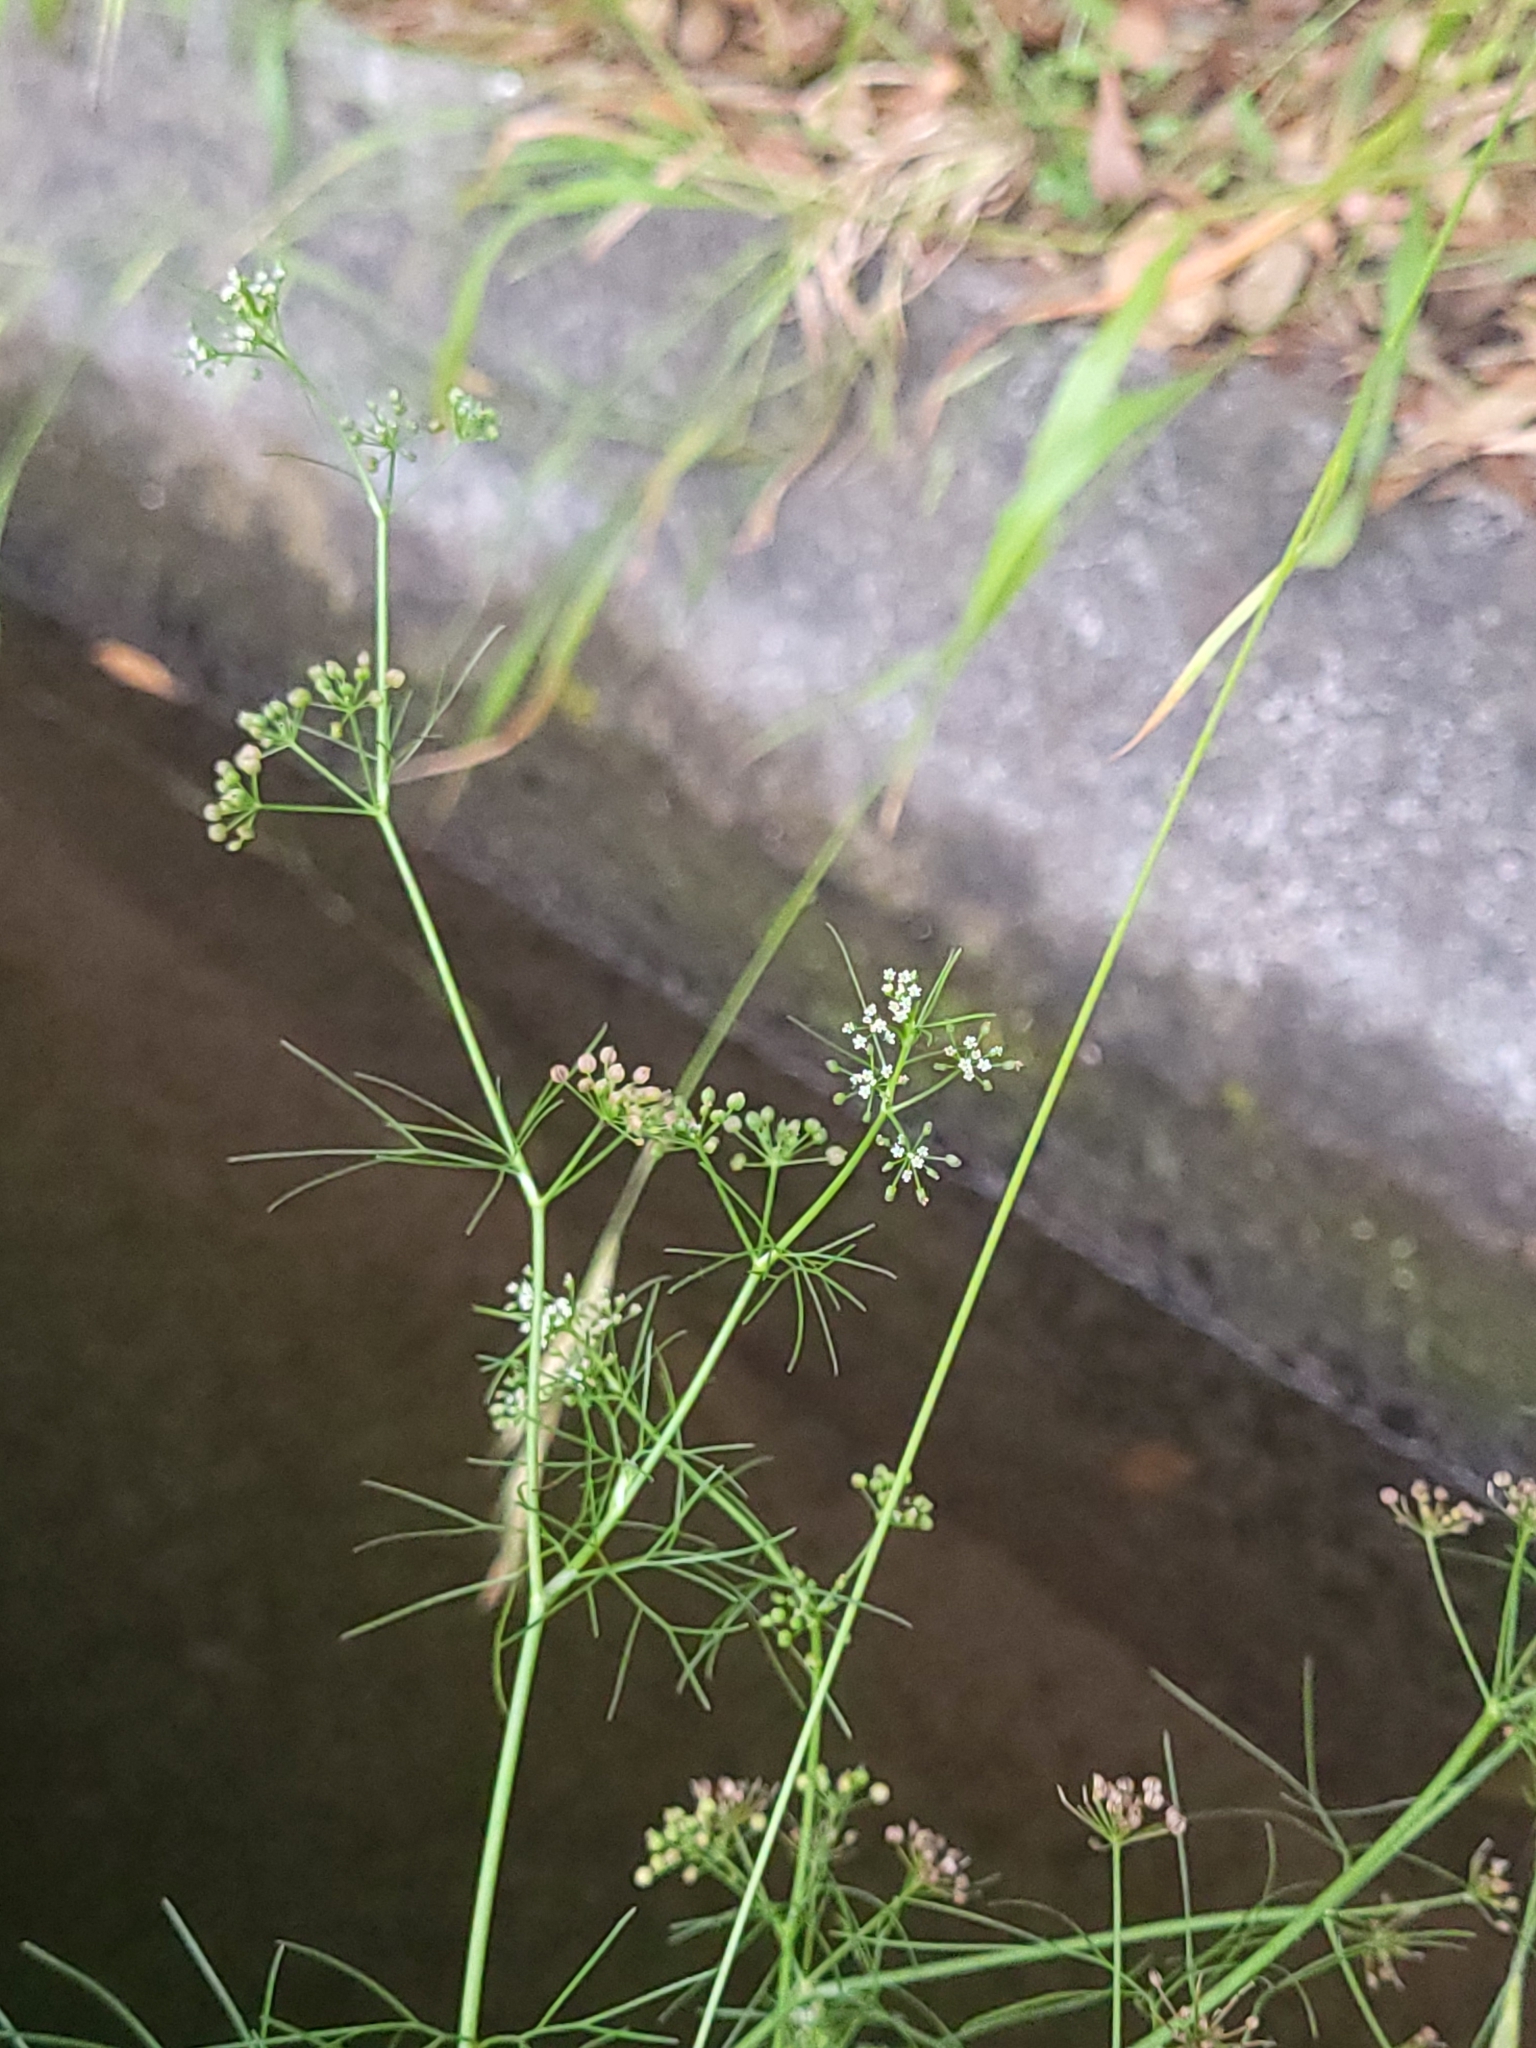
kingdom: Plantae
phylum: Tracheophyta
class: Magnoliopsida
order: Apiales
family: Apiaceae
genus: Cyclospermum
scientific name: Cyclospermum leptophyllum
